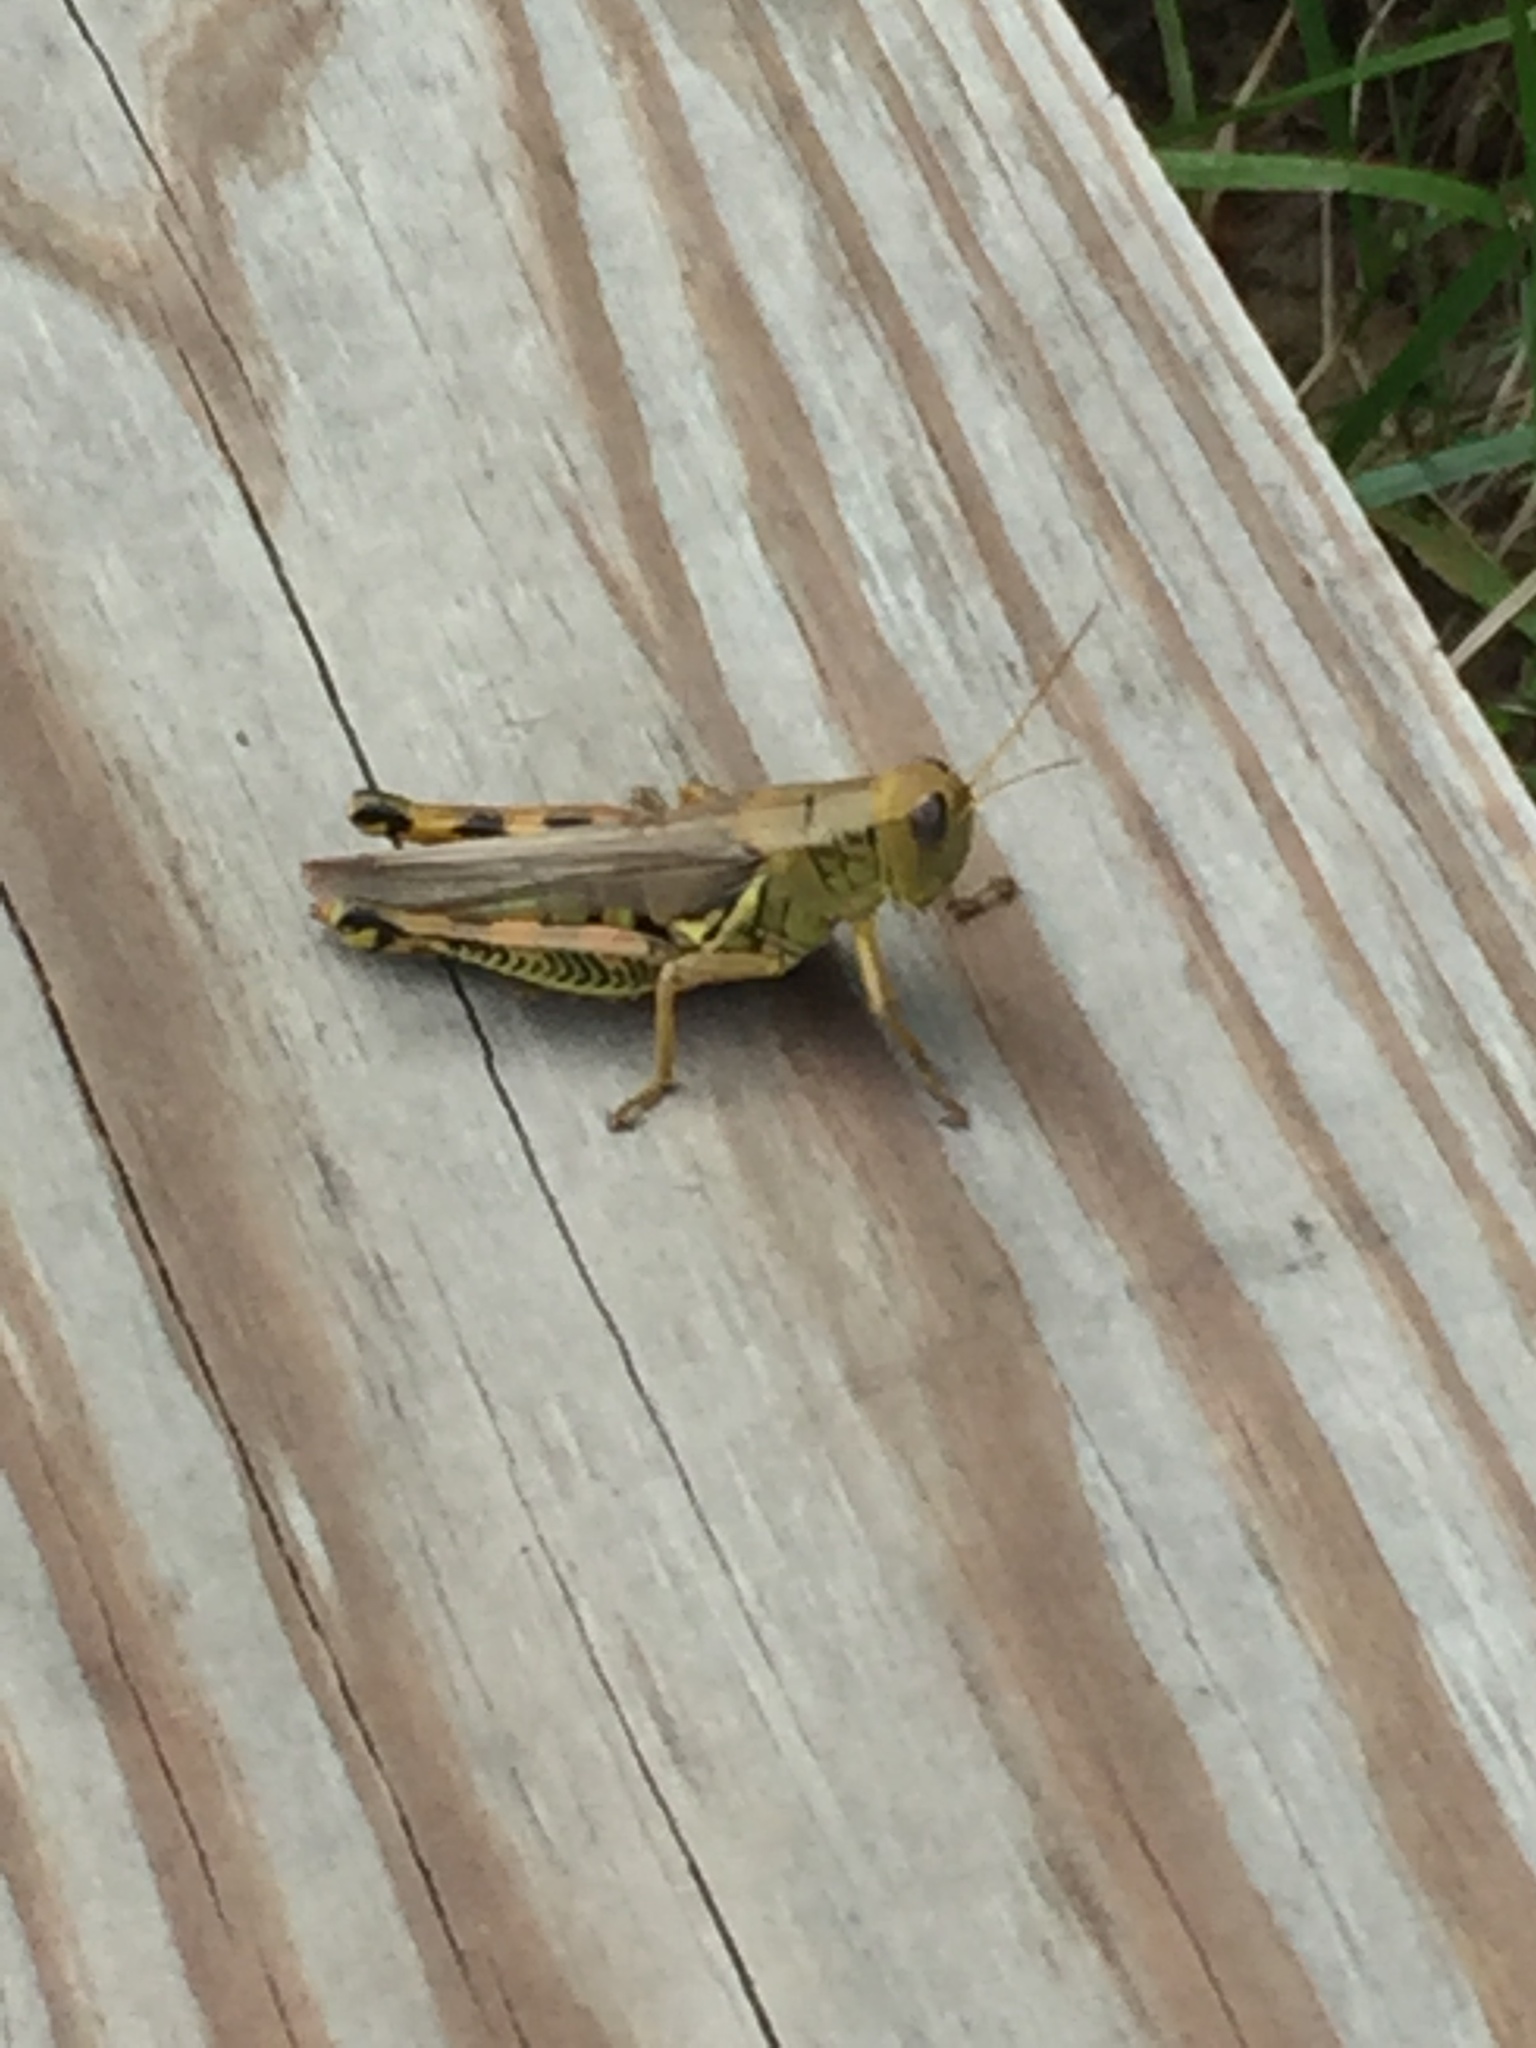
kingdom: Animalia
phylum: Arthropoda
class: Insecta
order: Orthoptera
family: Acrididae
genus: Melanoplus
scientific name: Melanoplus differentialis
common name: Differential grasshopper
